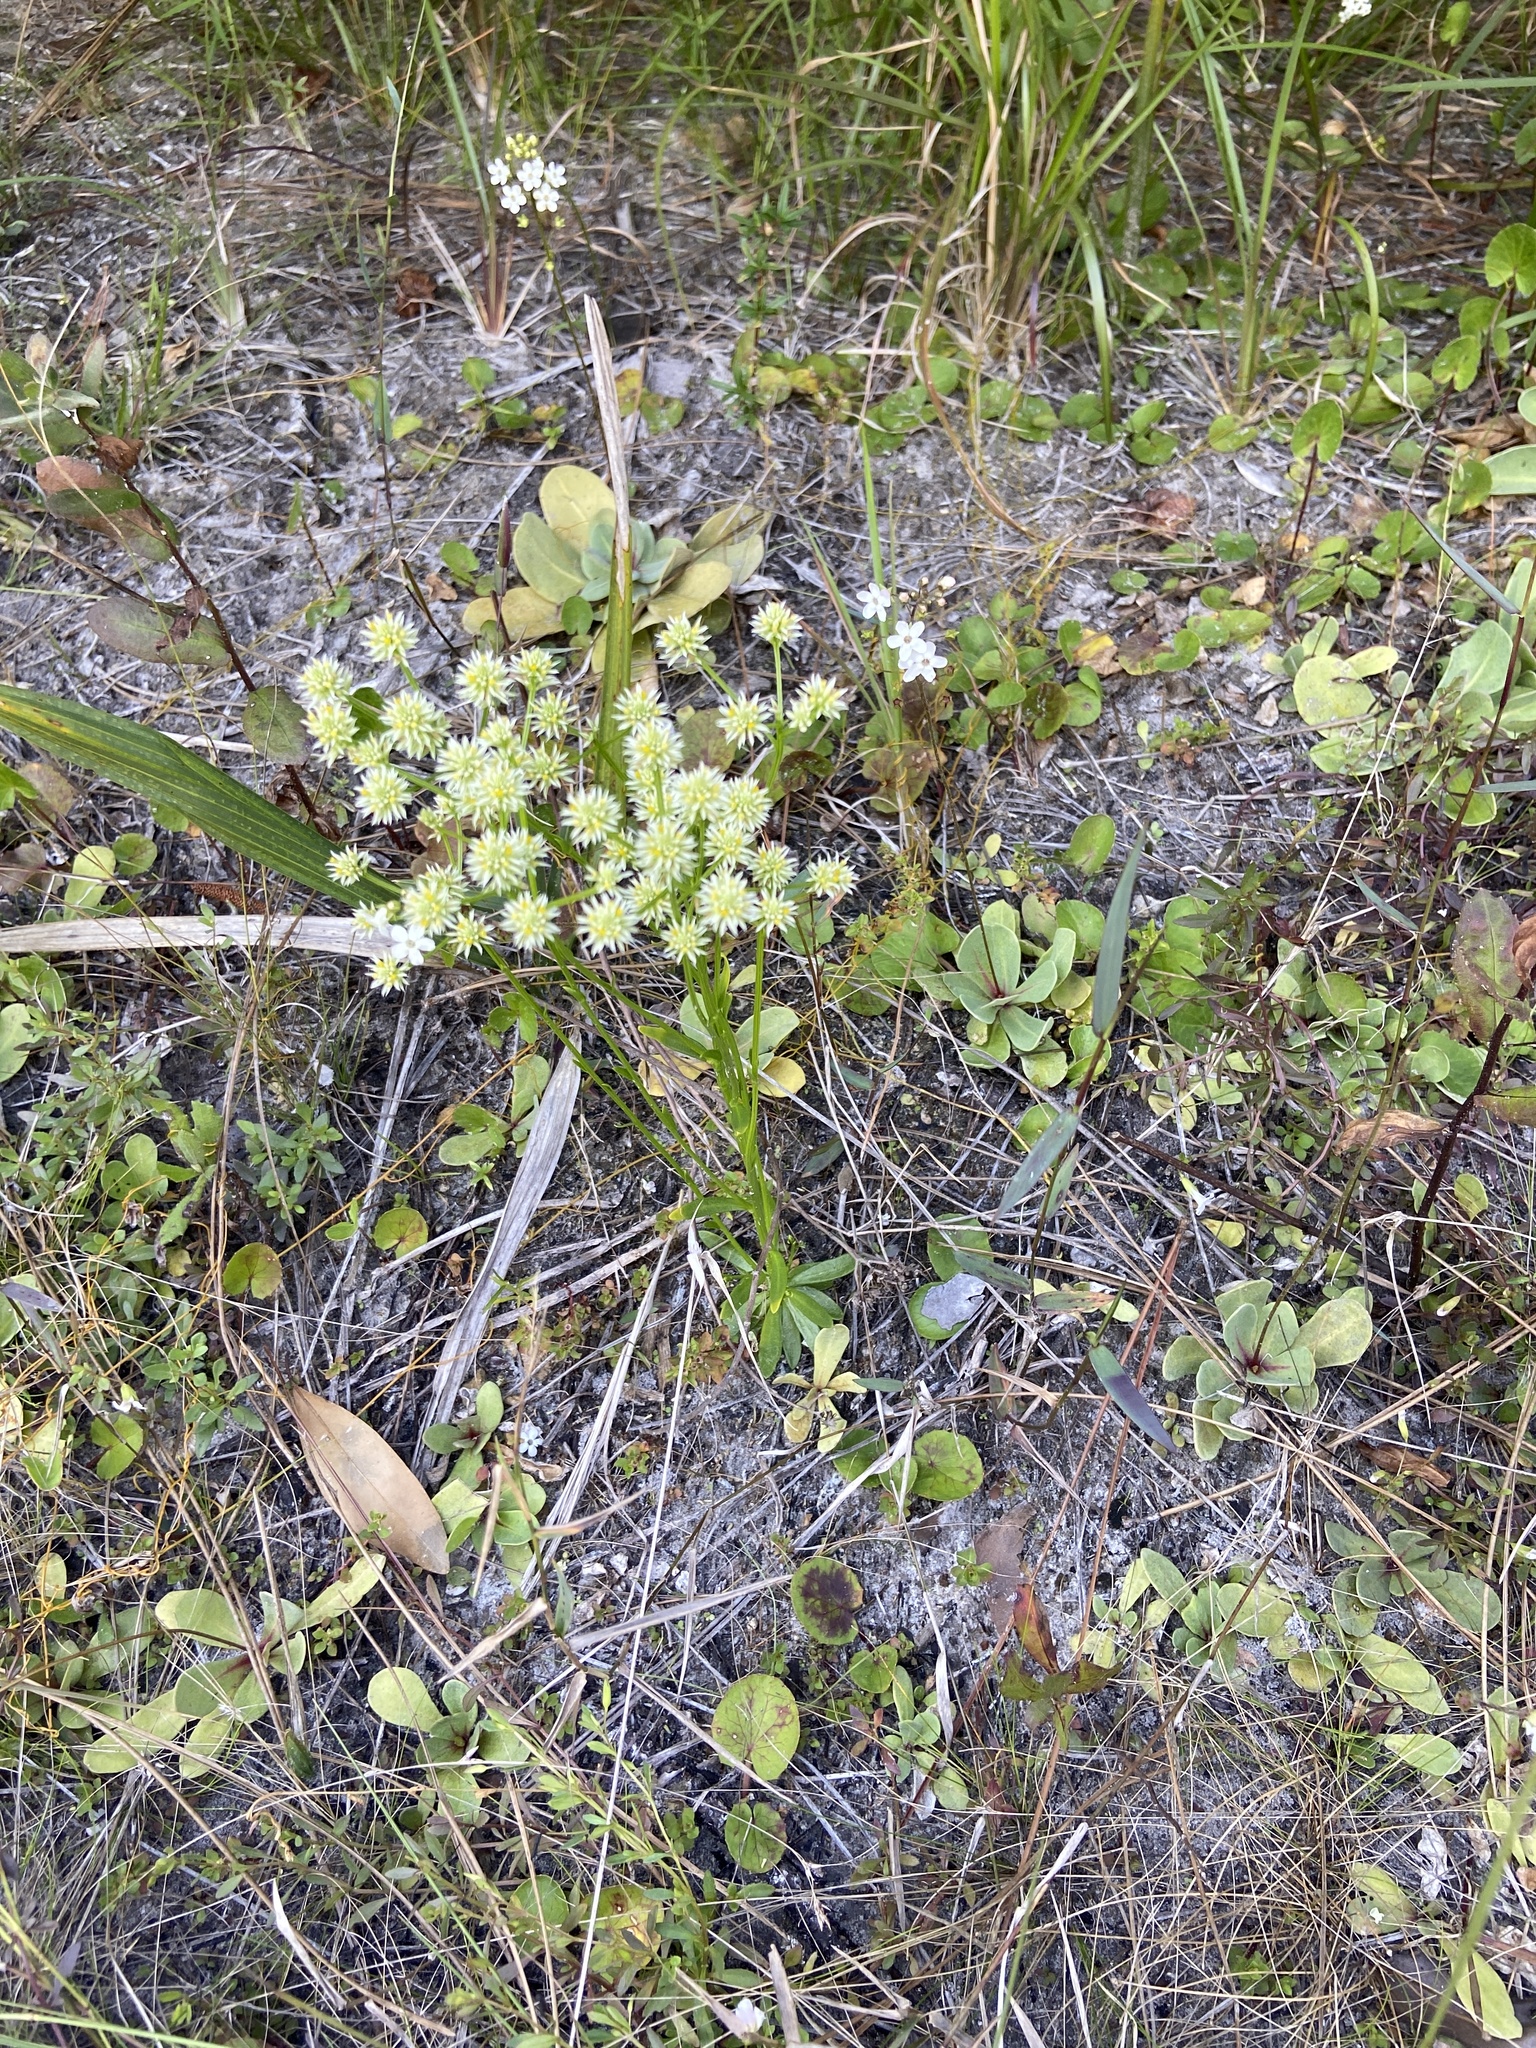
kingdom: Plantae
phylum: Tracheophyta
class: Magnoliopsida
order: Fabales
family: Polygalaceae
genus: Polygala
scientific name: Polygala baldwinii
